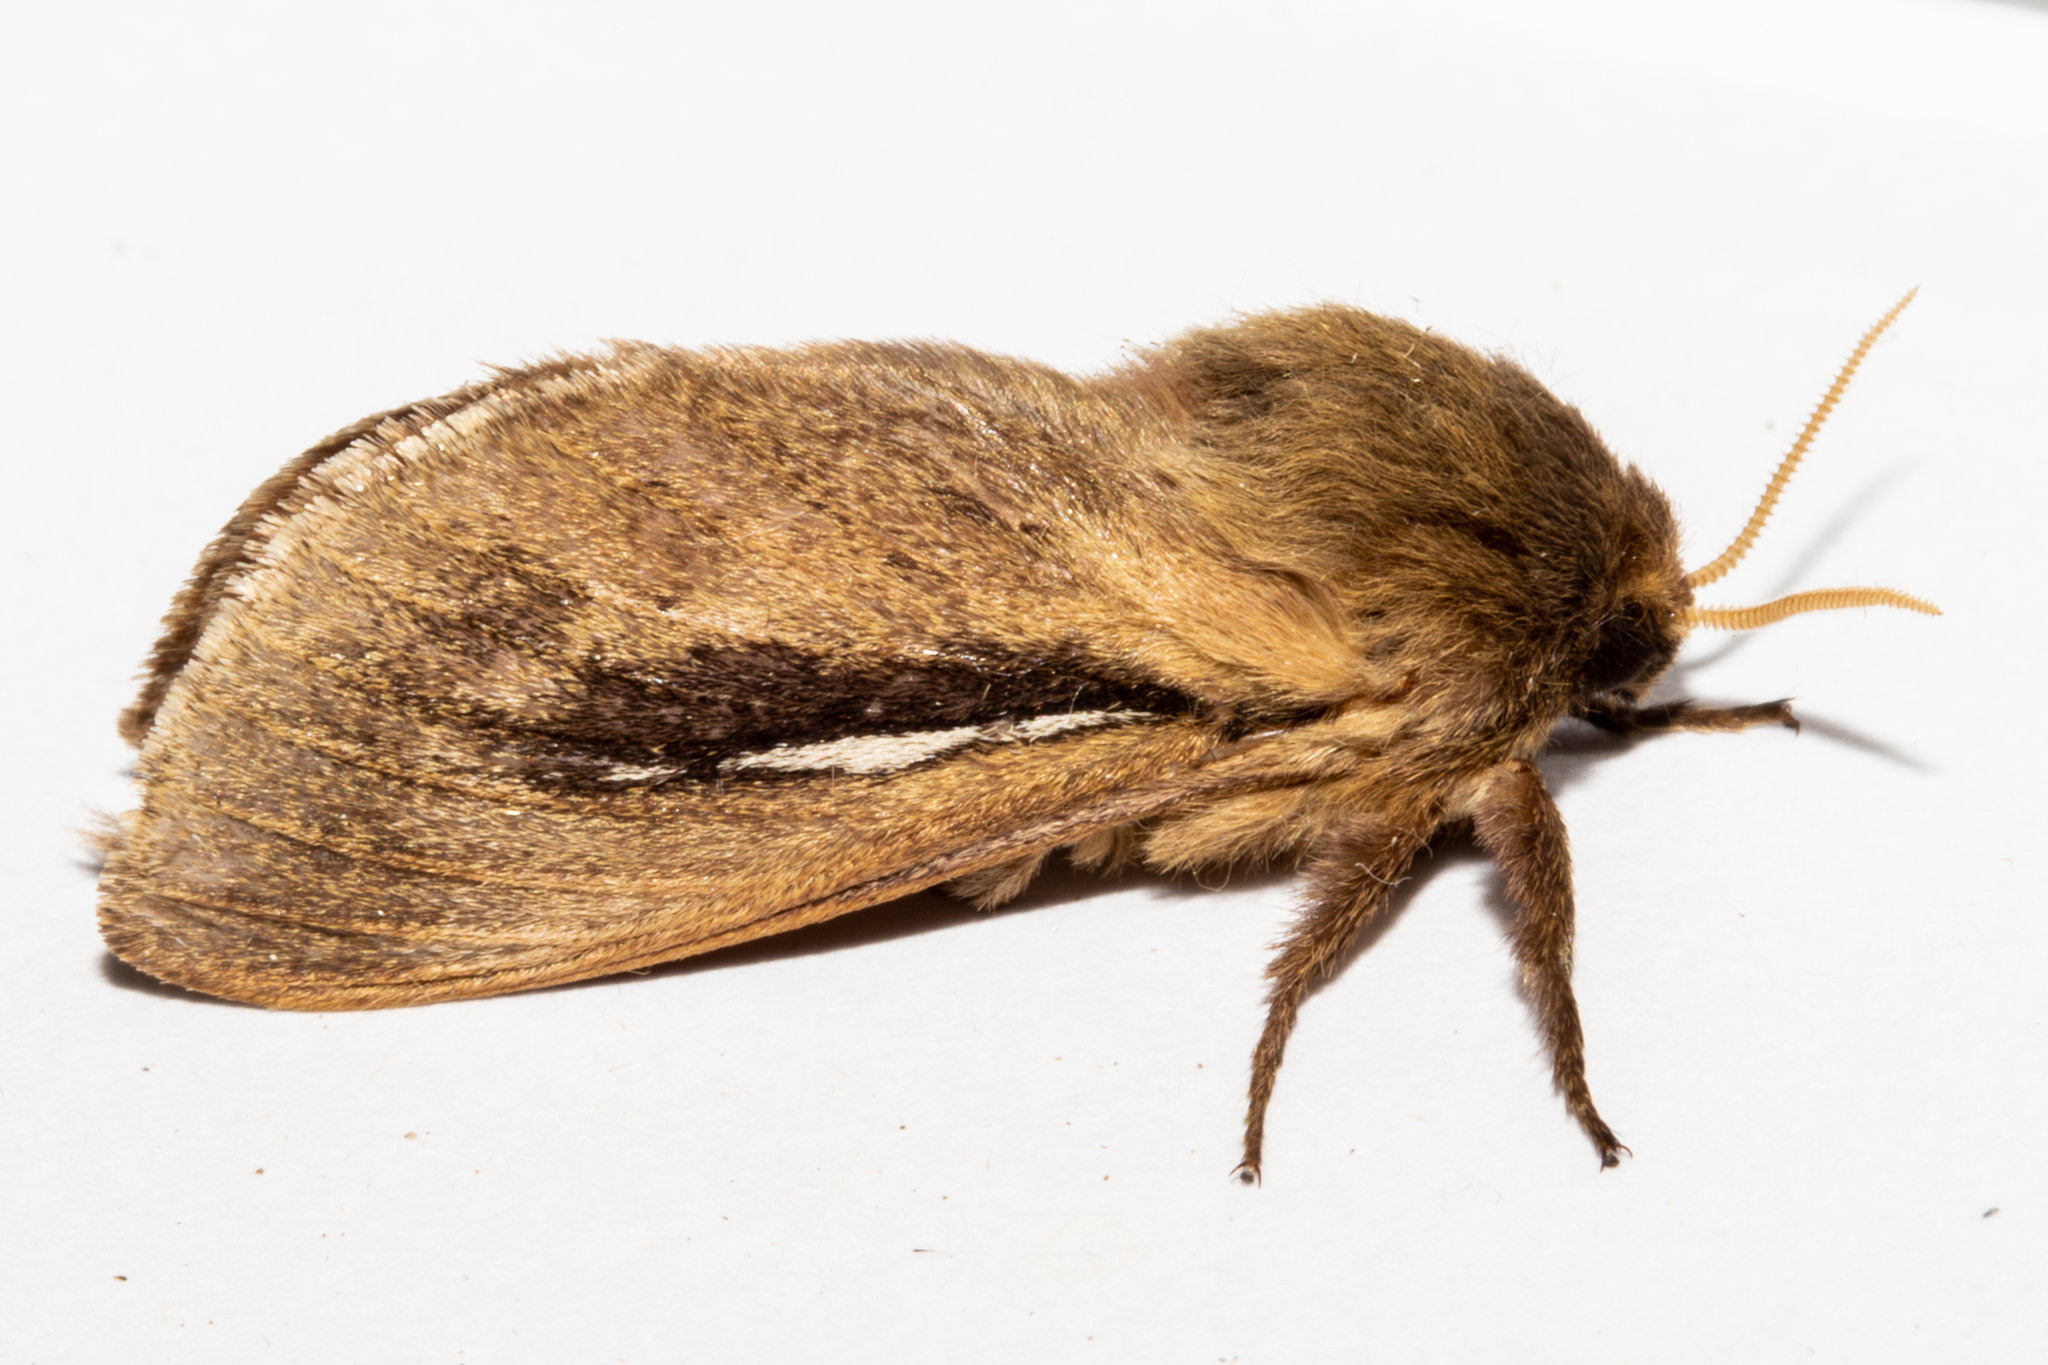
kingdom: Animalia
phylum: Arthropoda
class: Insecta
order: Lepidoptera
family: Hepialidae
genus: Wiseana
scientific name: Wiseana umbraculatus
